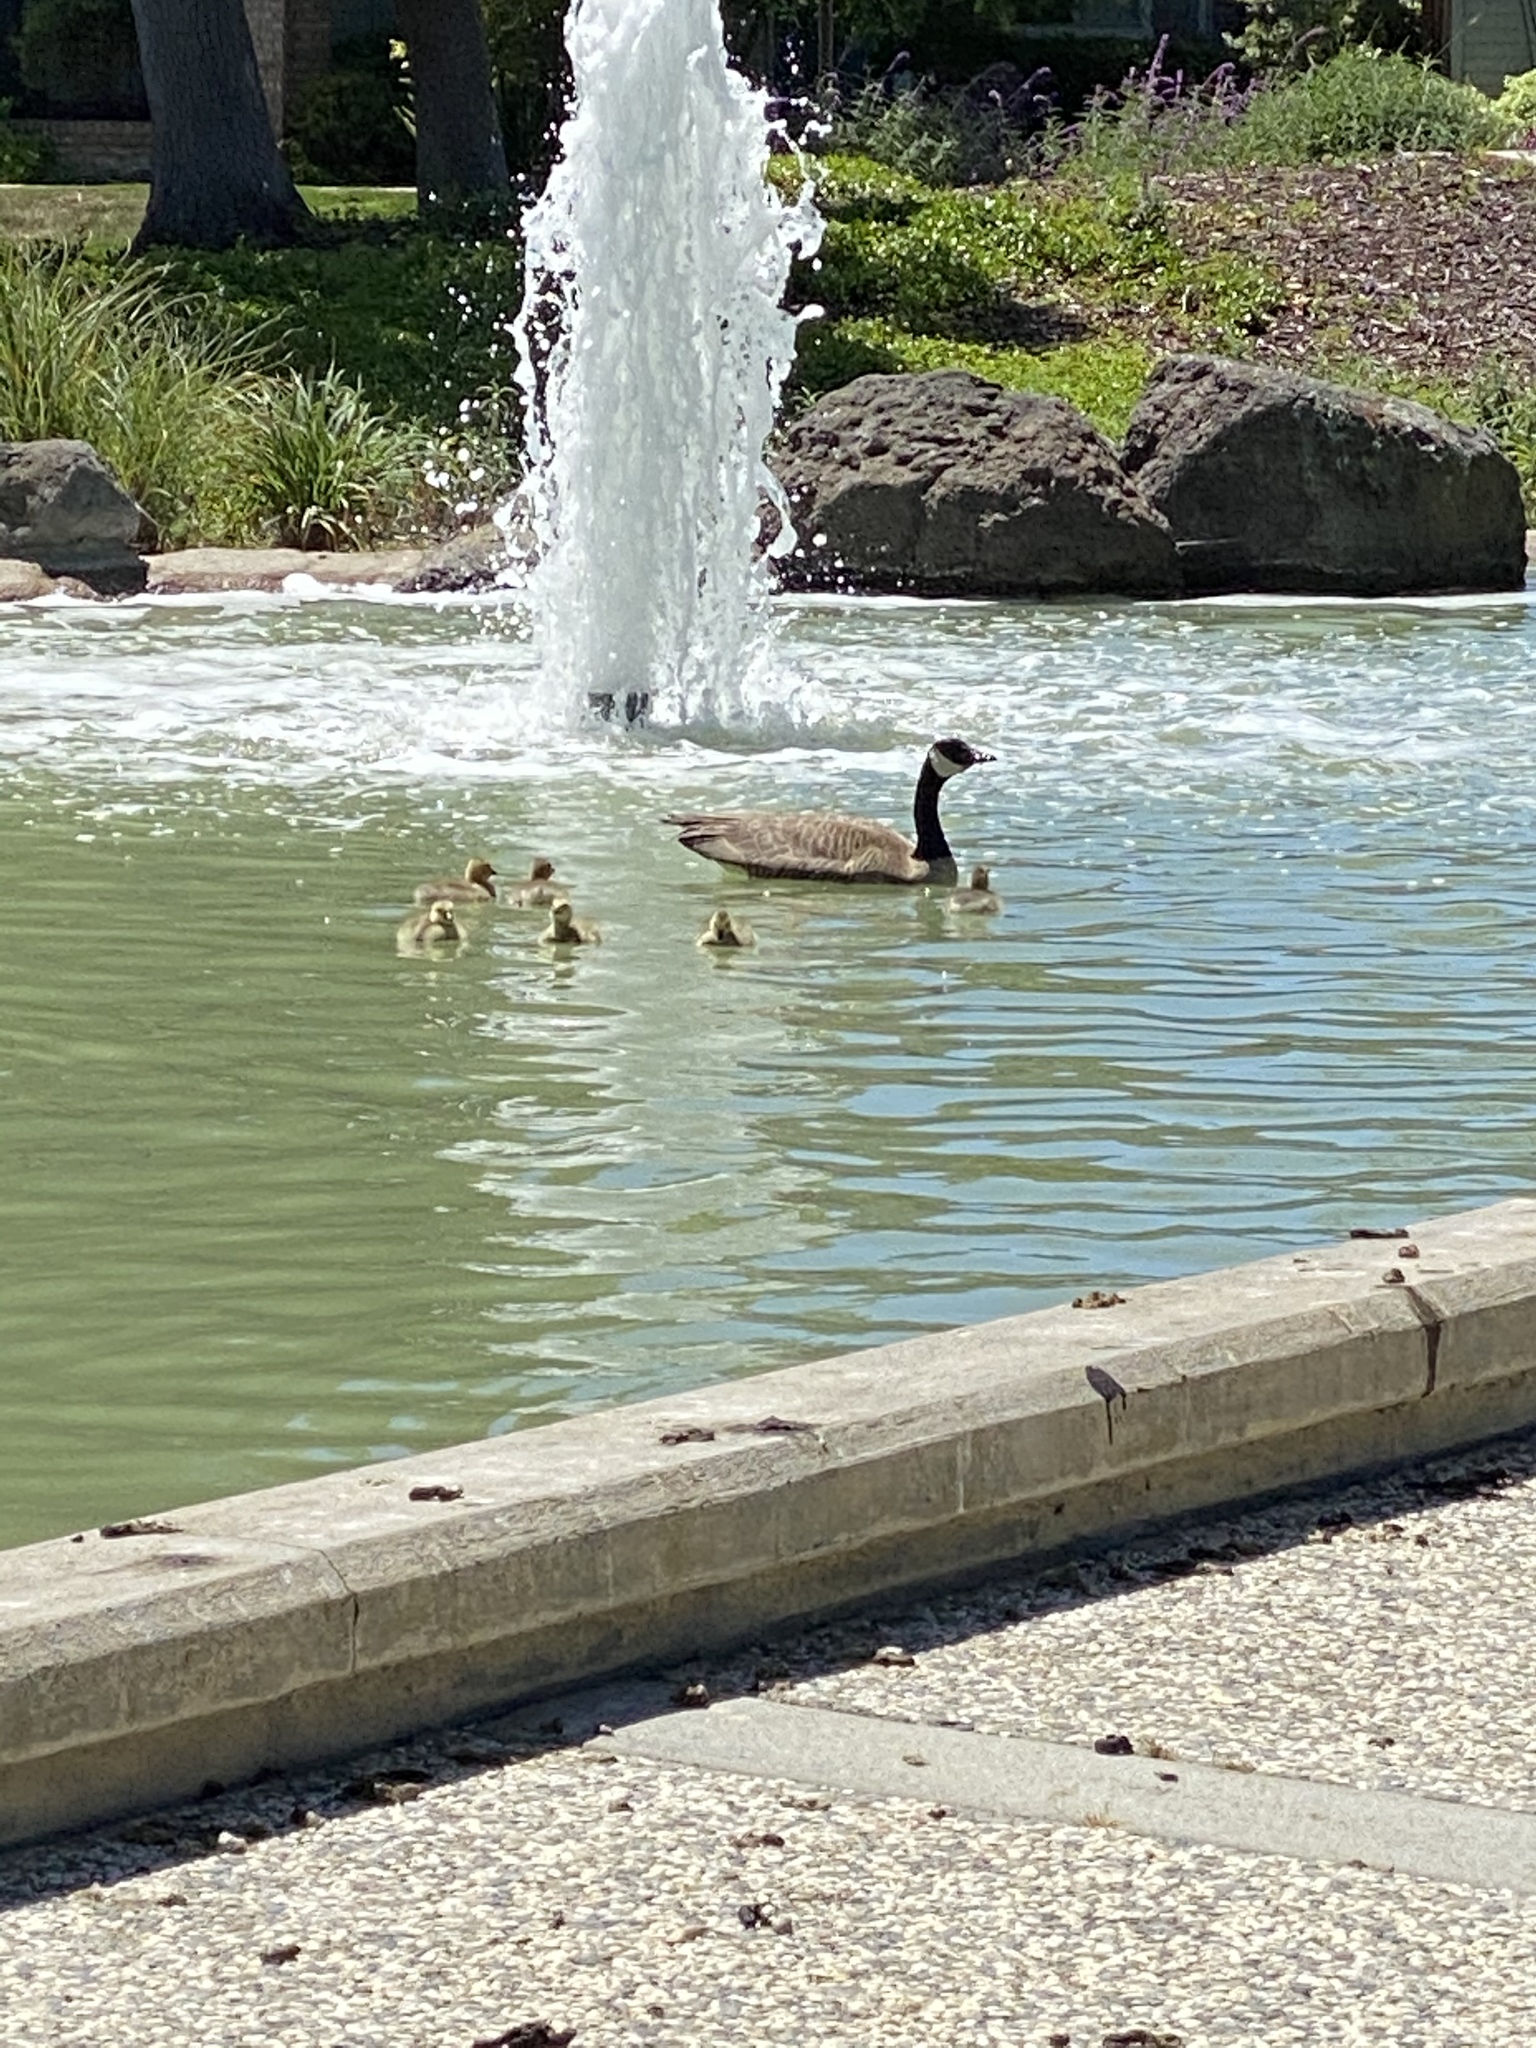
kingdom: Animalia
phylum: Chordata
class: Aves
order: Anseriformes
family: Anatidae
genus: Branta
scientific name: Branta canadensis
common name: Canada goose
